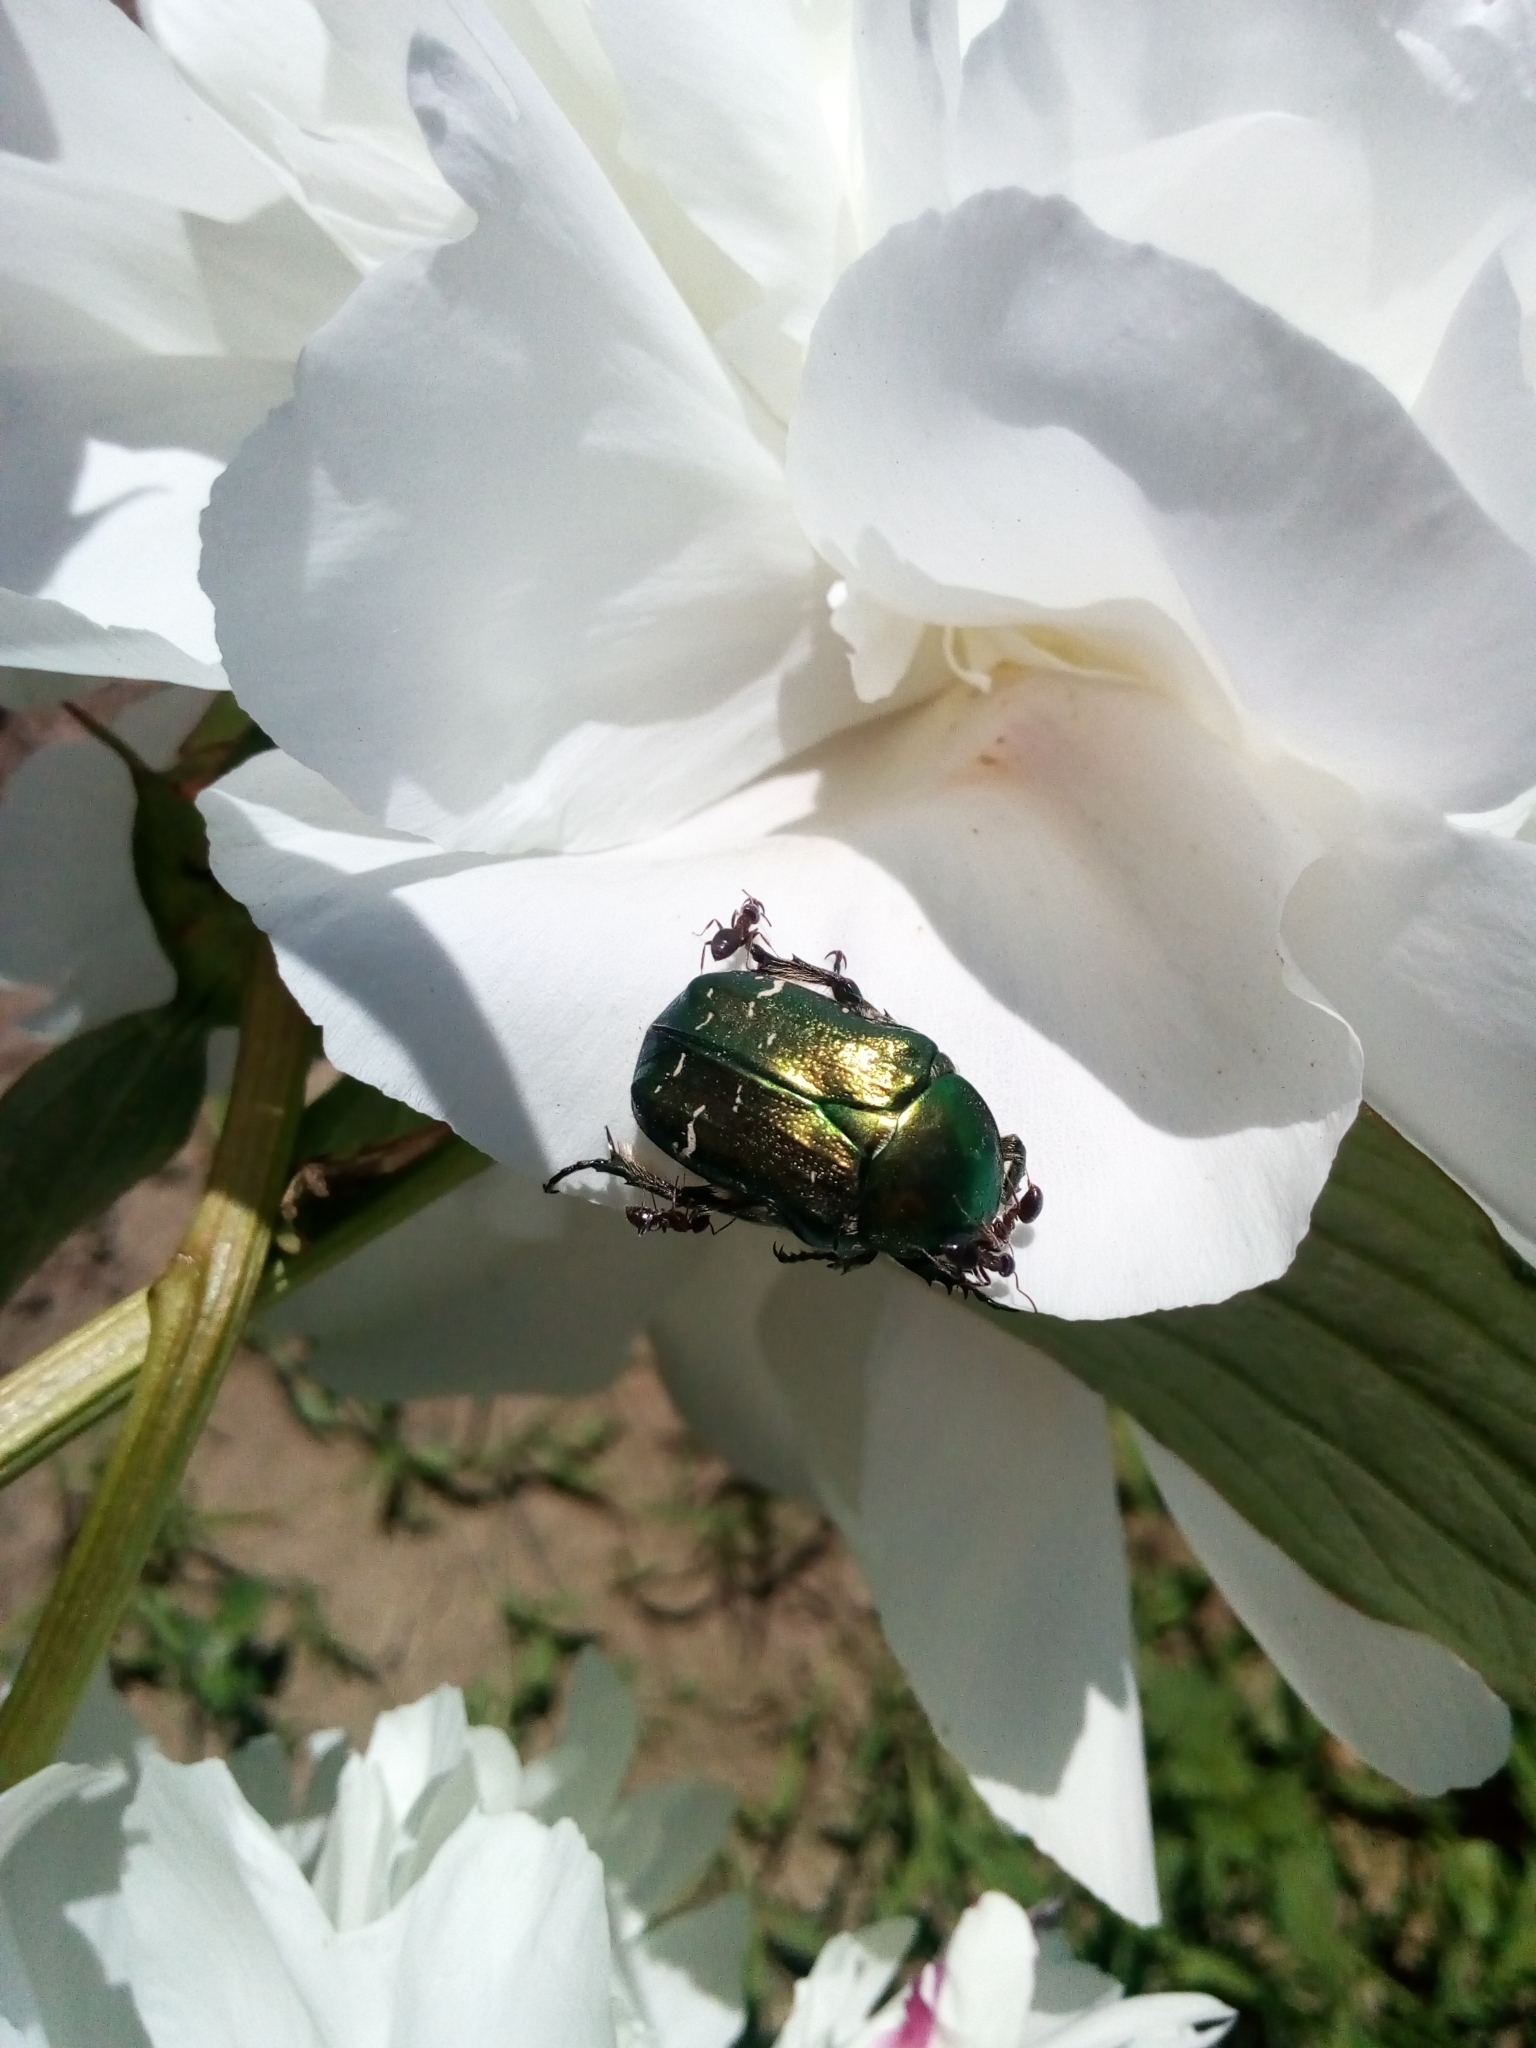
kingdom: Animalia
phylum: Arthropoda
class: Insecta
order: Coleoptera
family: Scarabaeidae
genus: Cetonia
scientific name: Cetonia aurata
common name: Rose chafer
